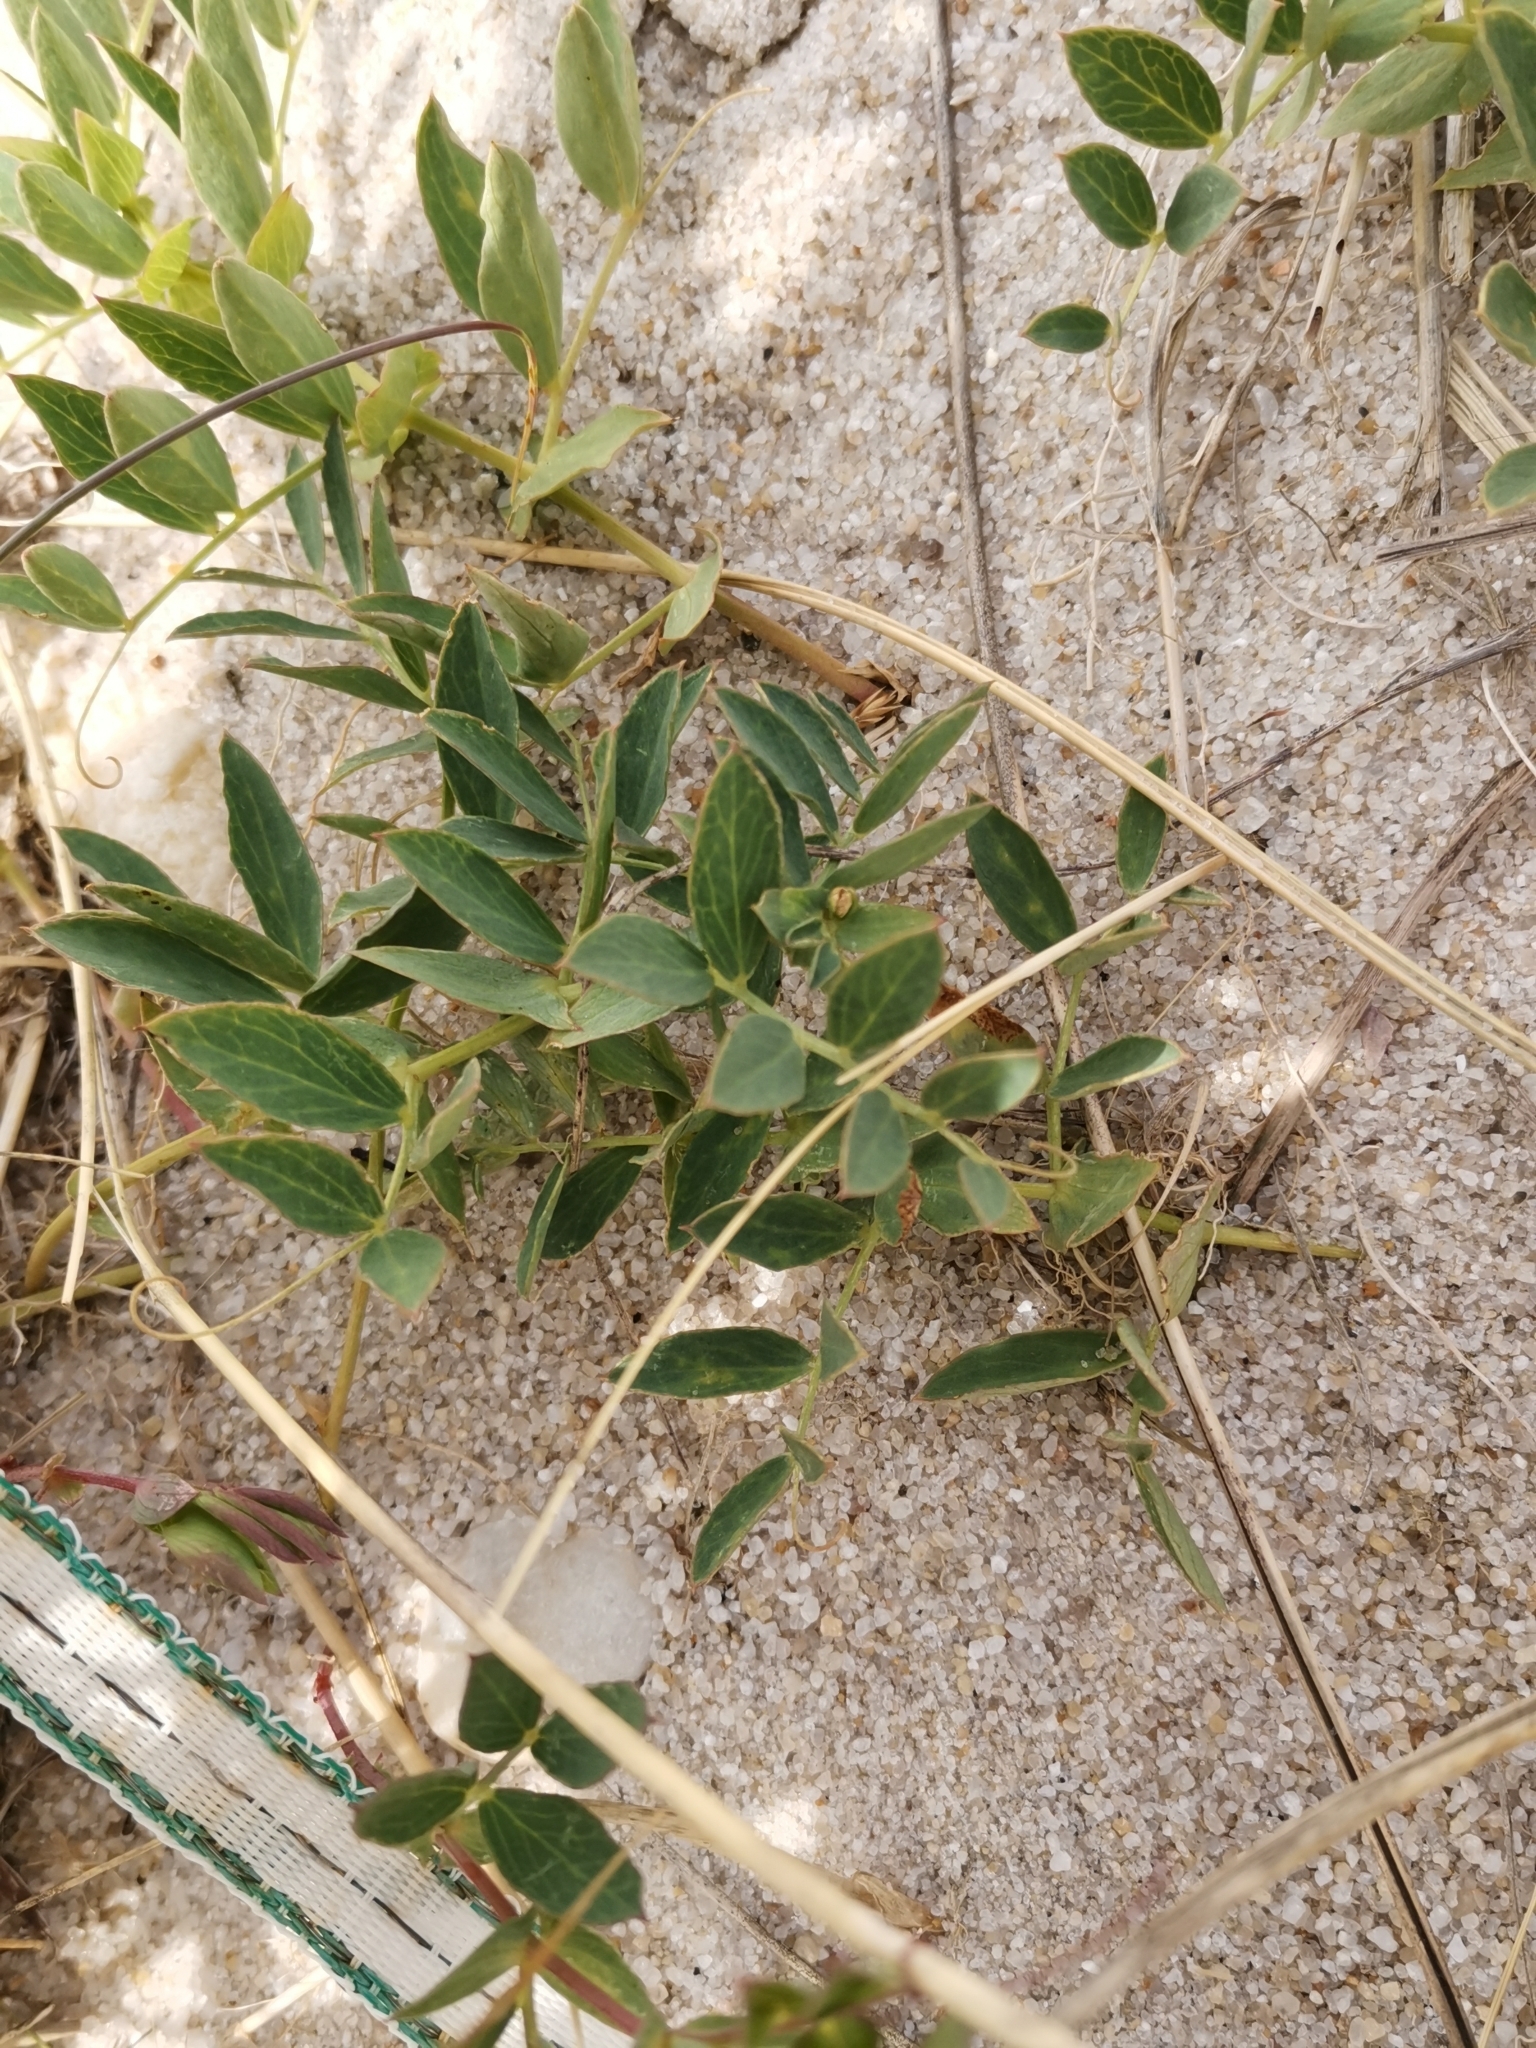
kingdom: Plantae
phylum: Tracheophyta
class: Magnoliopsida
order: Fabales
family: Fabaceae
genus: Lathyrus
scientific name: Lathyrus japonicus
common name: Sea pea
